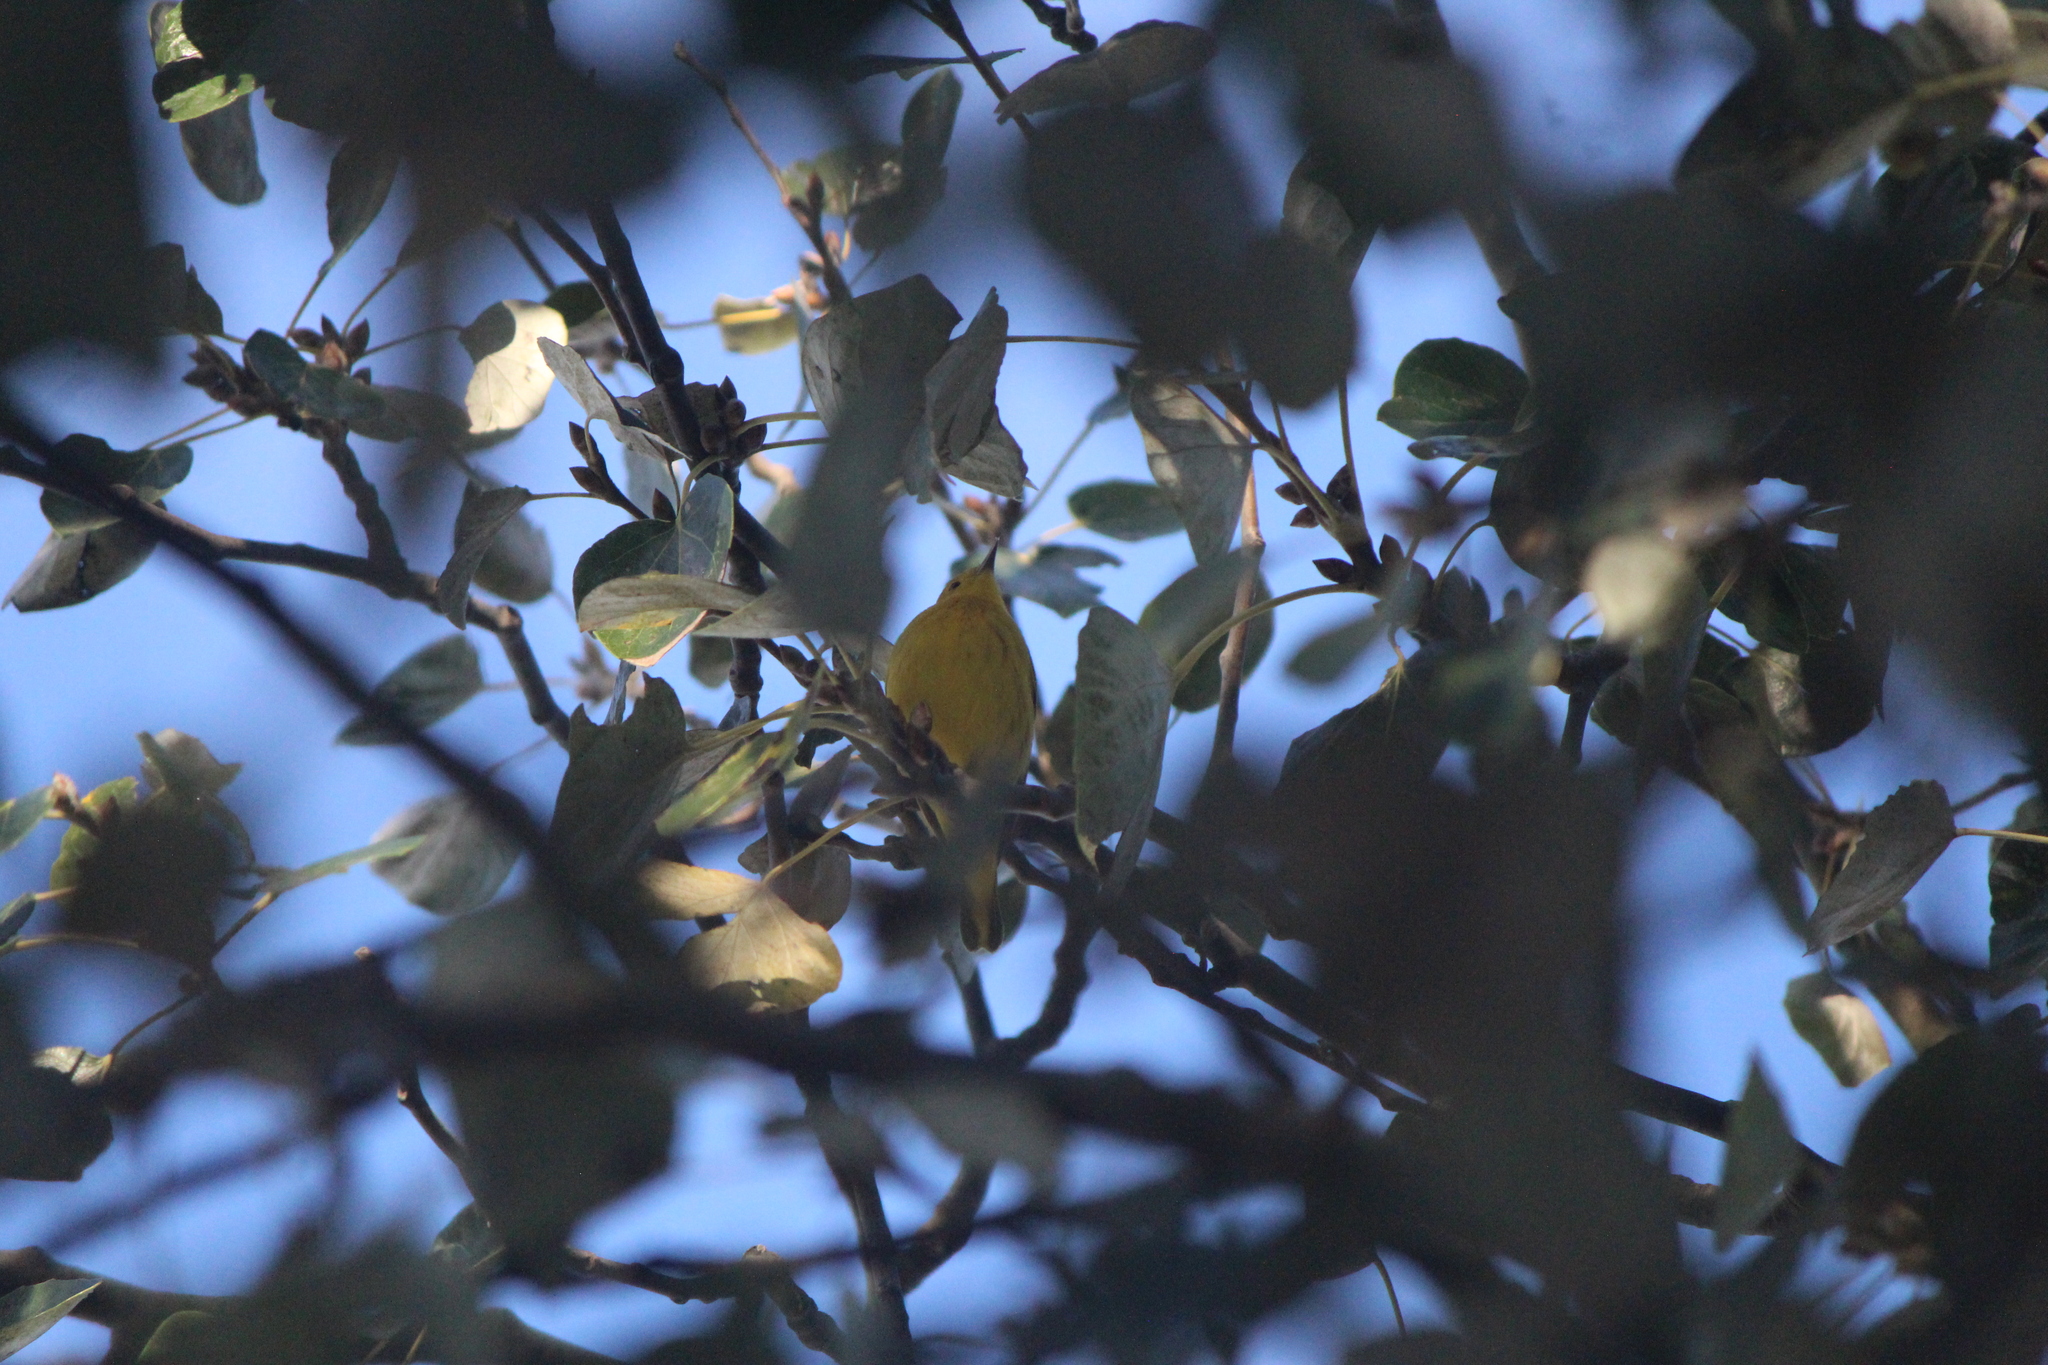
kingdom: Animalia
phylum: Chordata
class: Aves
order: Passeriformes
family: Parulidae
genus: Setophaga
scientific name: Setophaga petechia
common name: Yellow warbler
